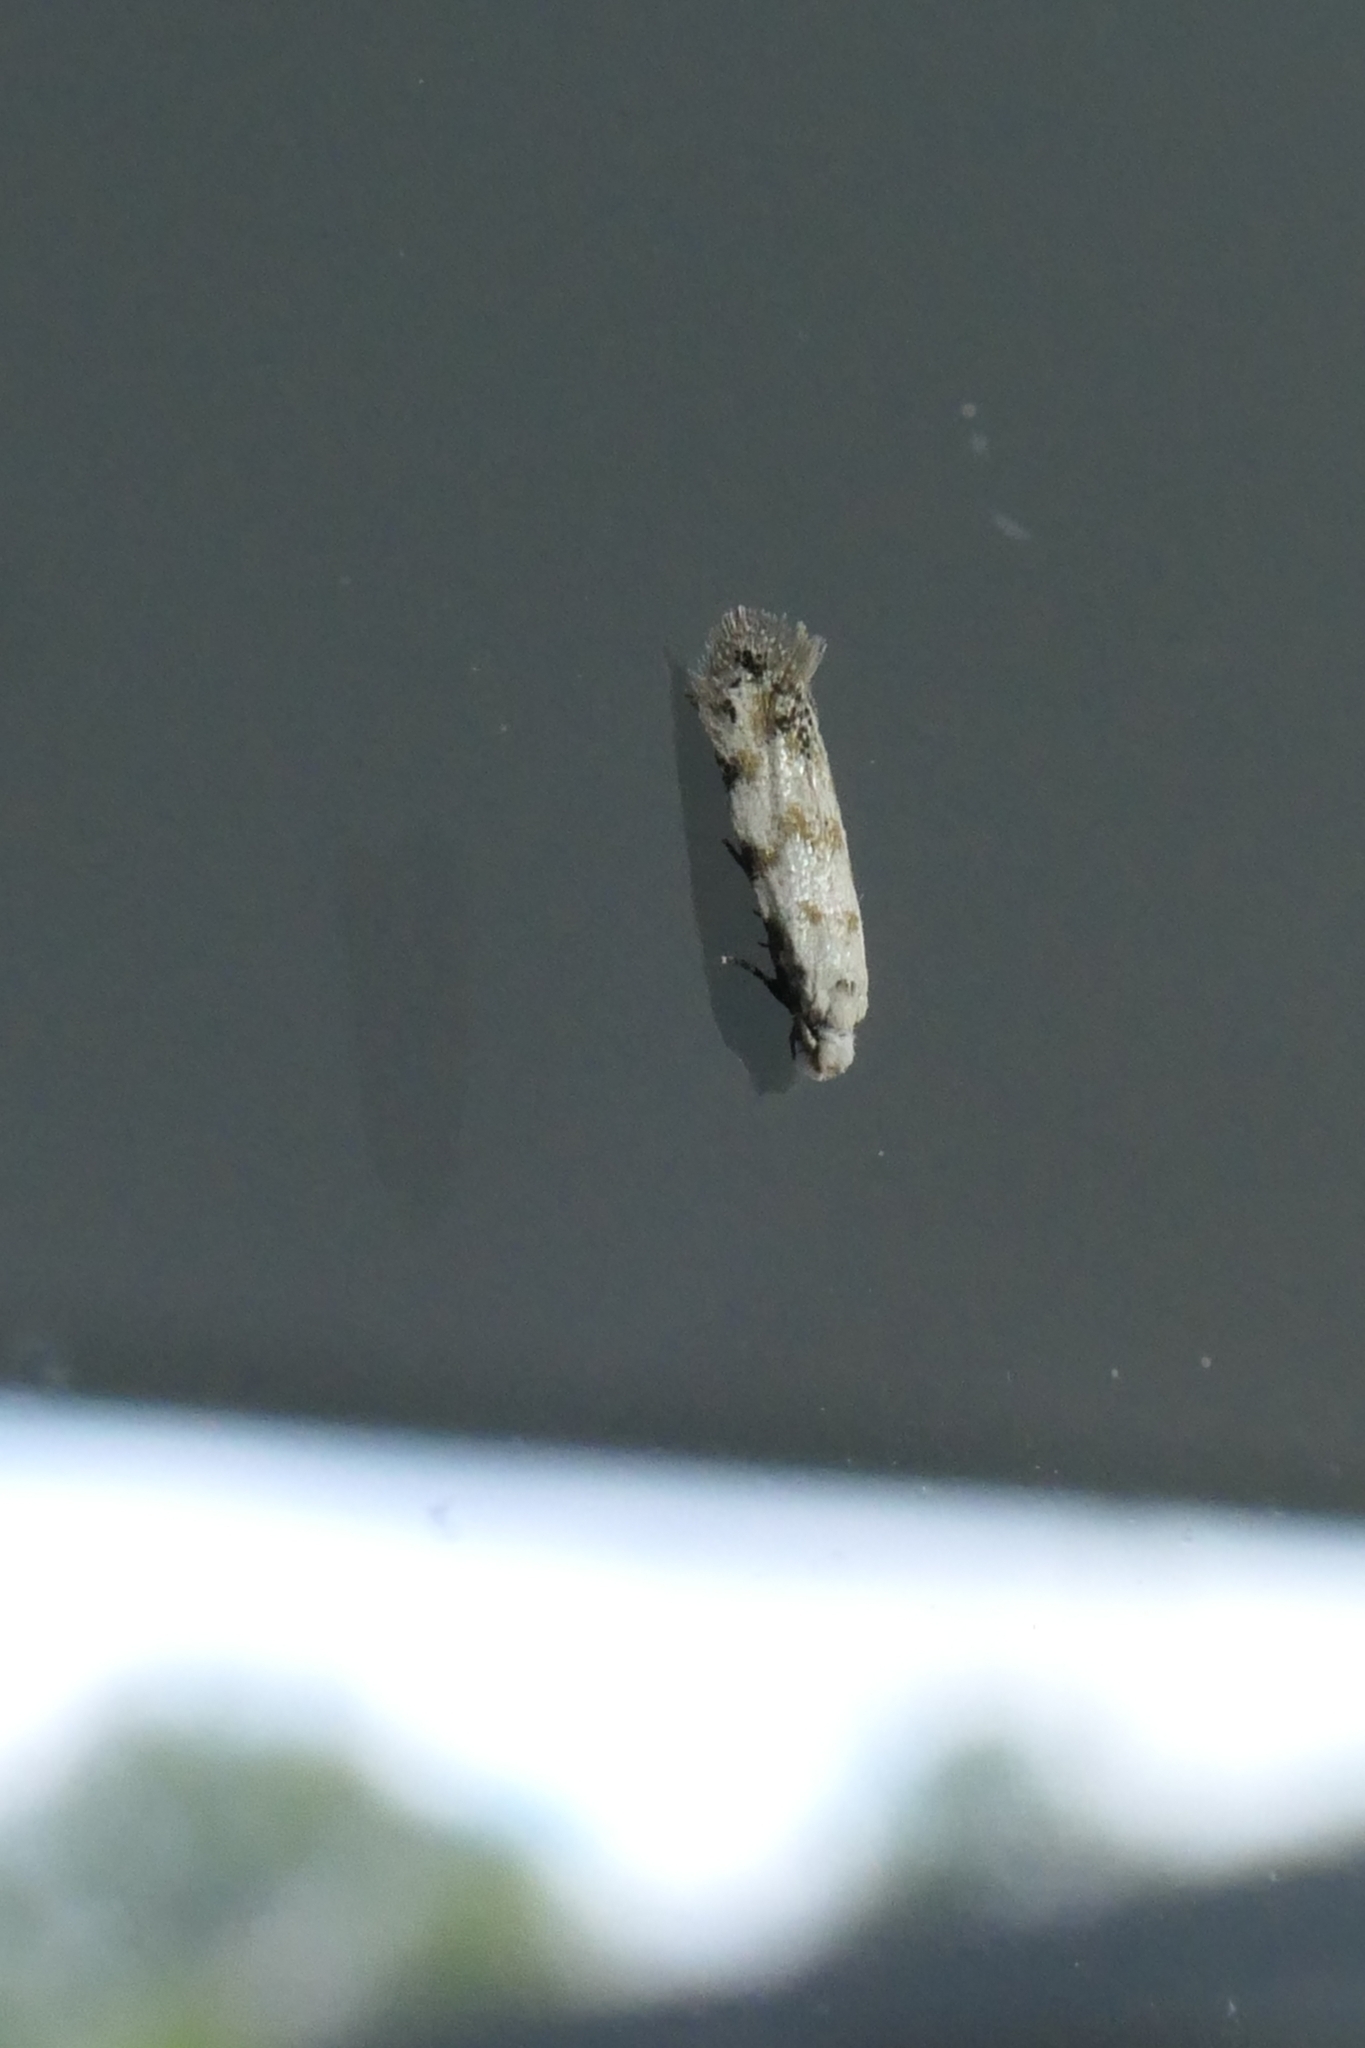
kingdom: Animalia
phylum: Arthropoda
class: Insecta
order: Lepidoptera
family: Tineidae
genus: Crypsitricha
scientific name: Crypsitricha stereota
